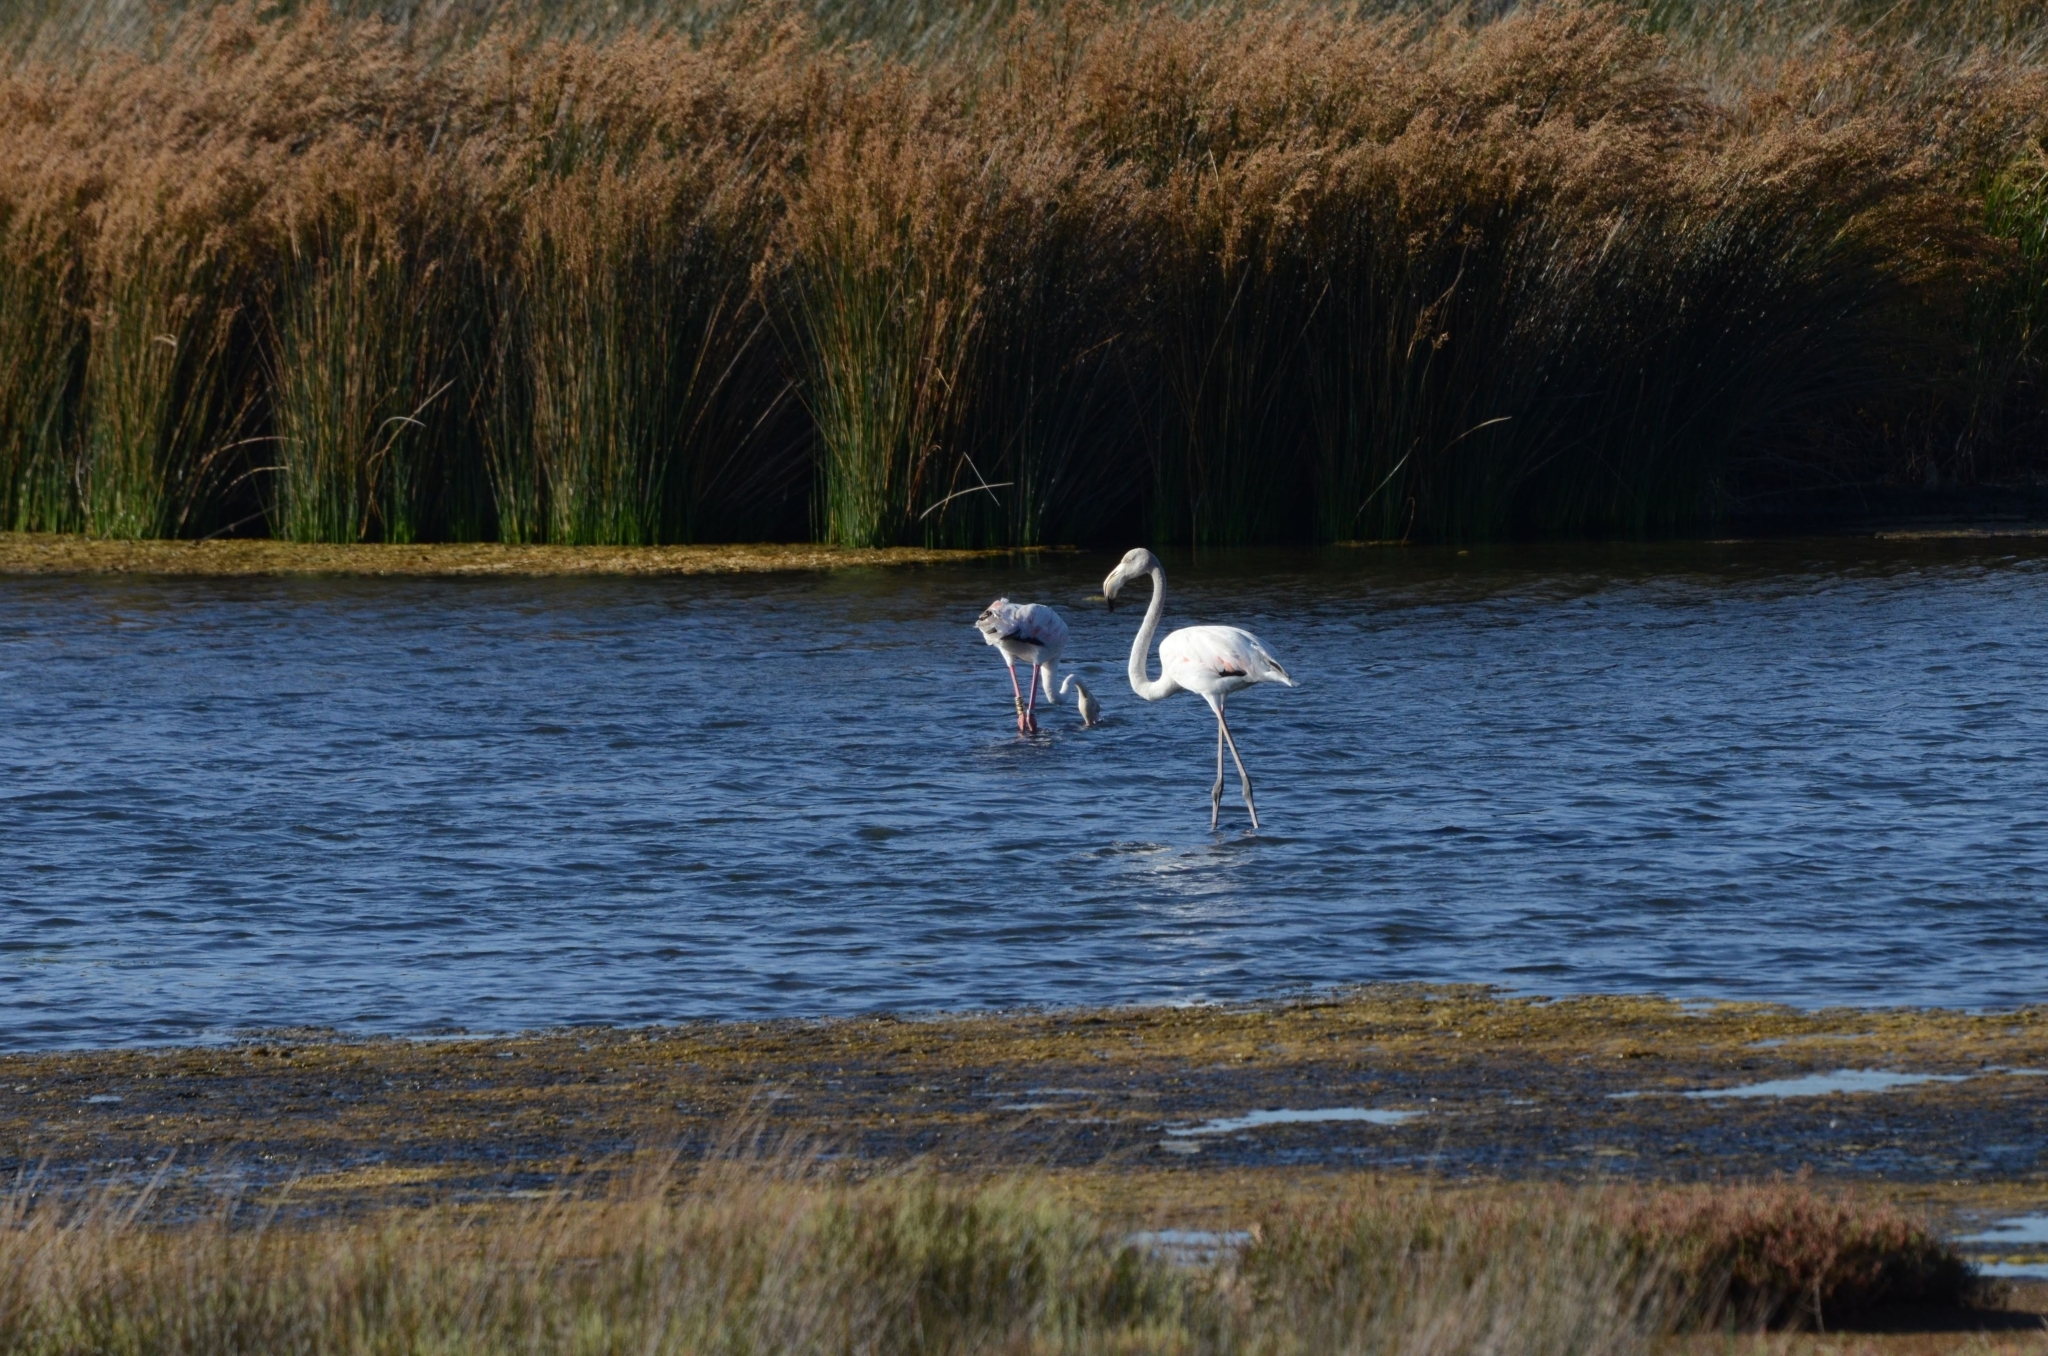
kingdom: Animalia
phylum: Chordata
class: Aves
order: Phoenicopteriformes
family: Phoenicopteridae
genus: Phoenicopterus
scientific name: Phoenicopterus roseus
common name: Greater flamingo
